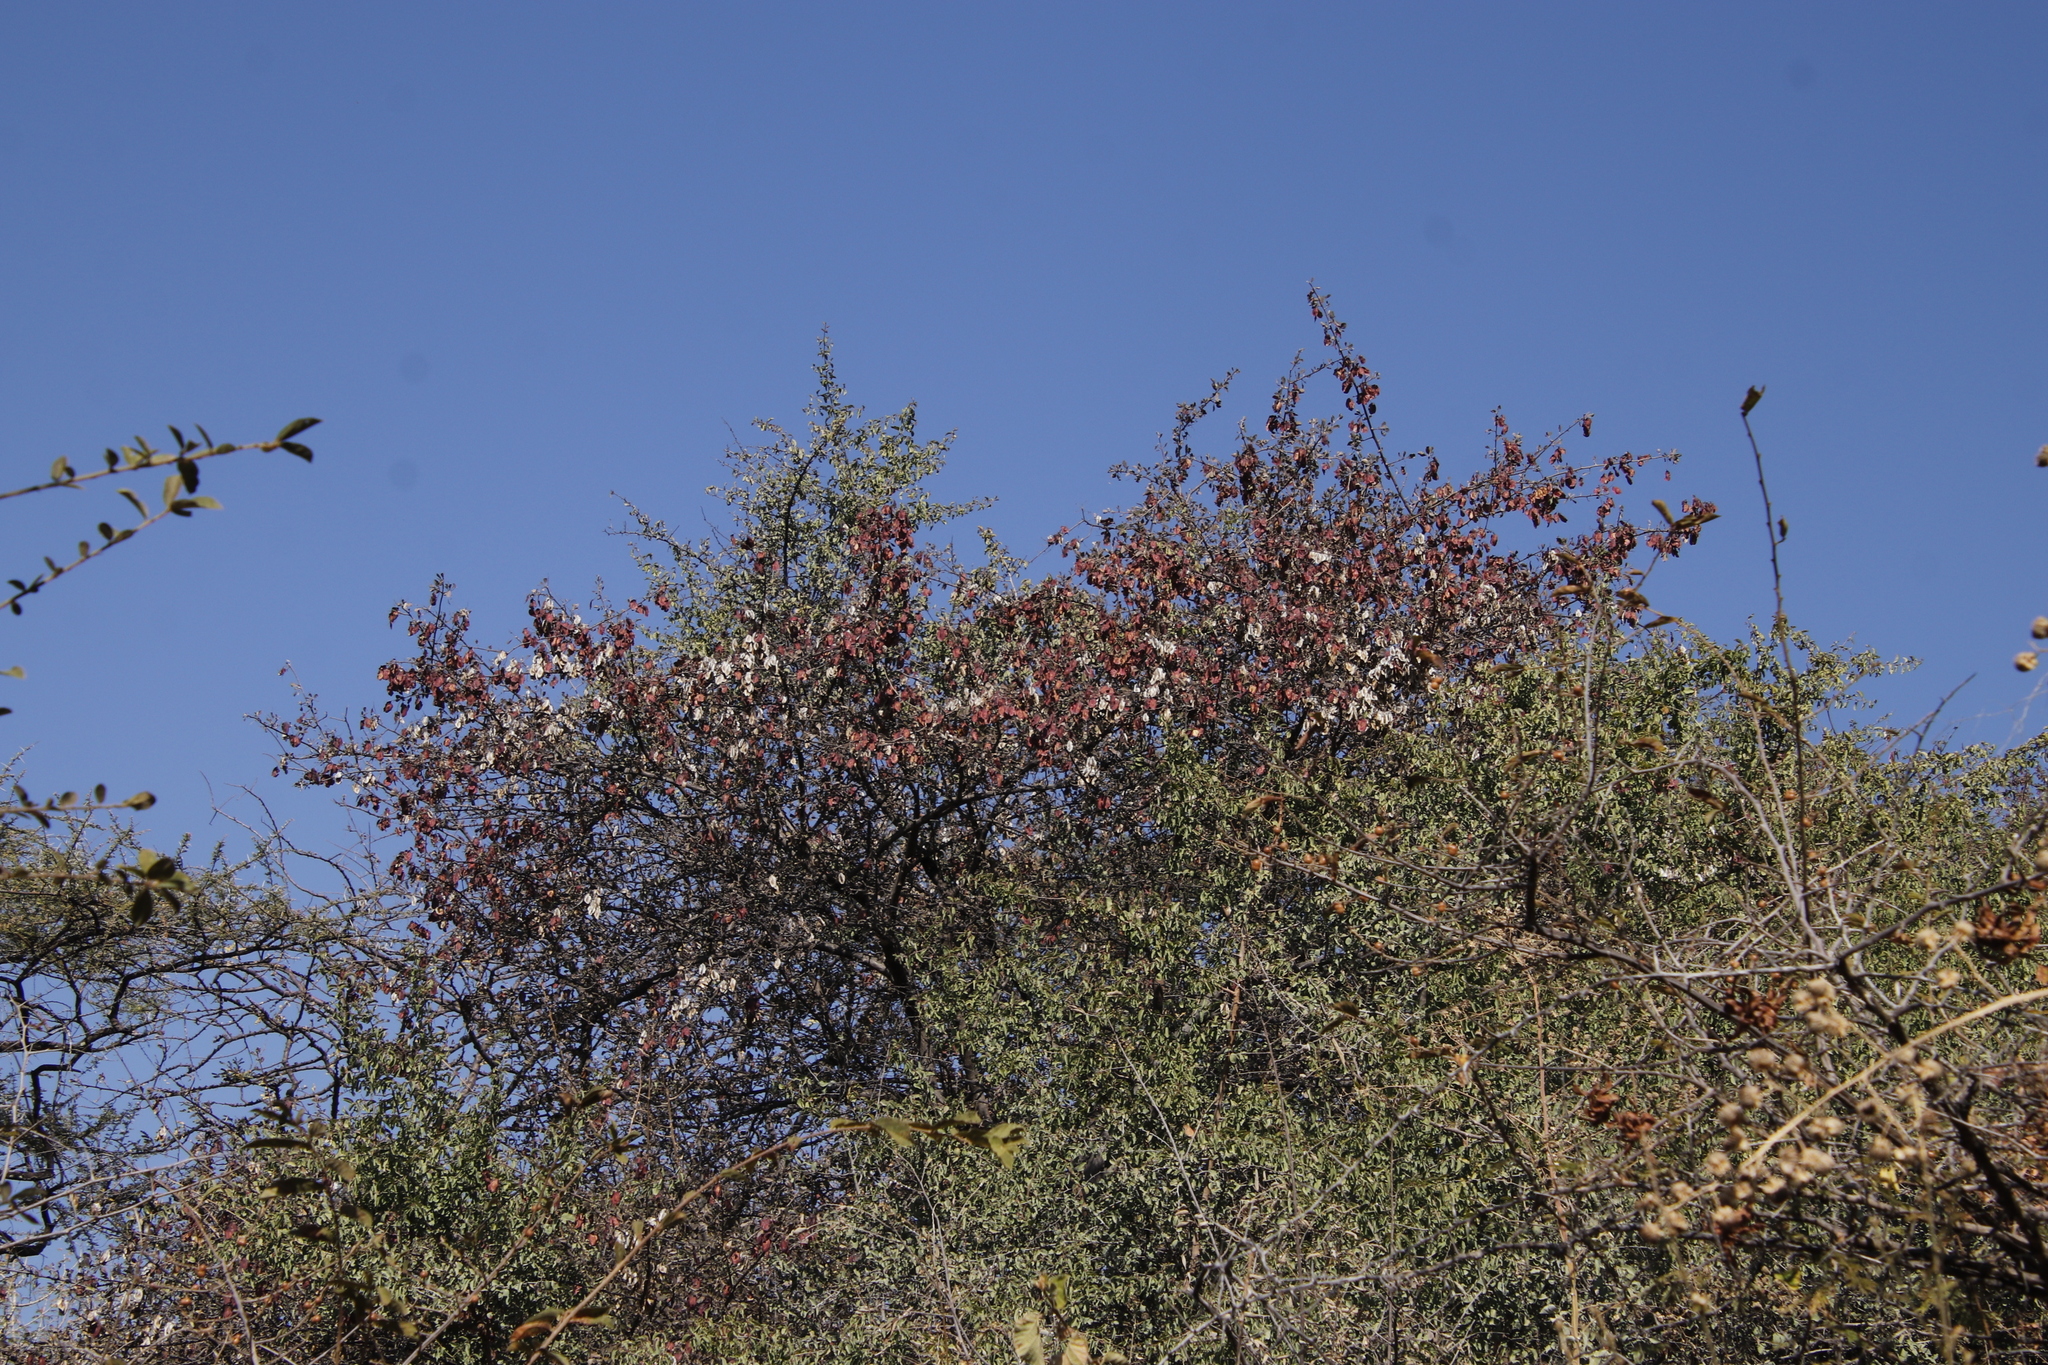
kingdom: Plantae
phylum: Tracheophyta
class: Magnoliopsida
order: Myrtales
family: Combretaceae
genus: Terminalia
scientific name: Terminalia prunioides
